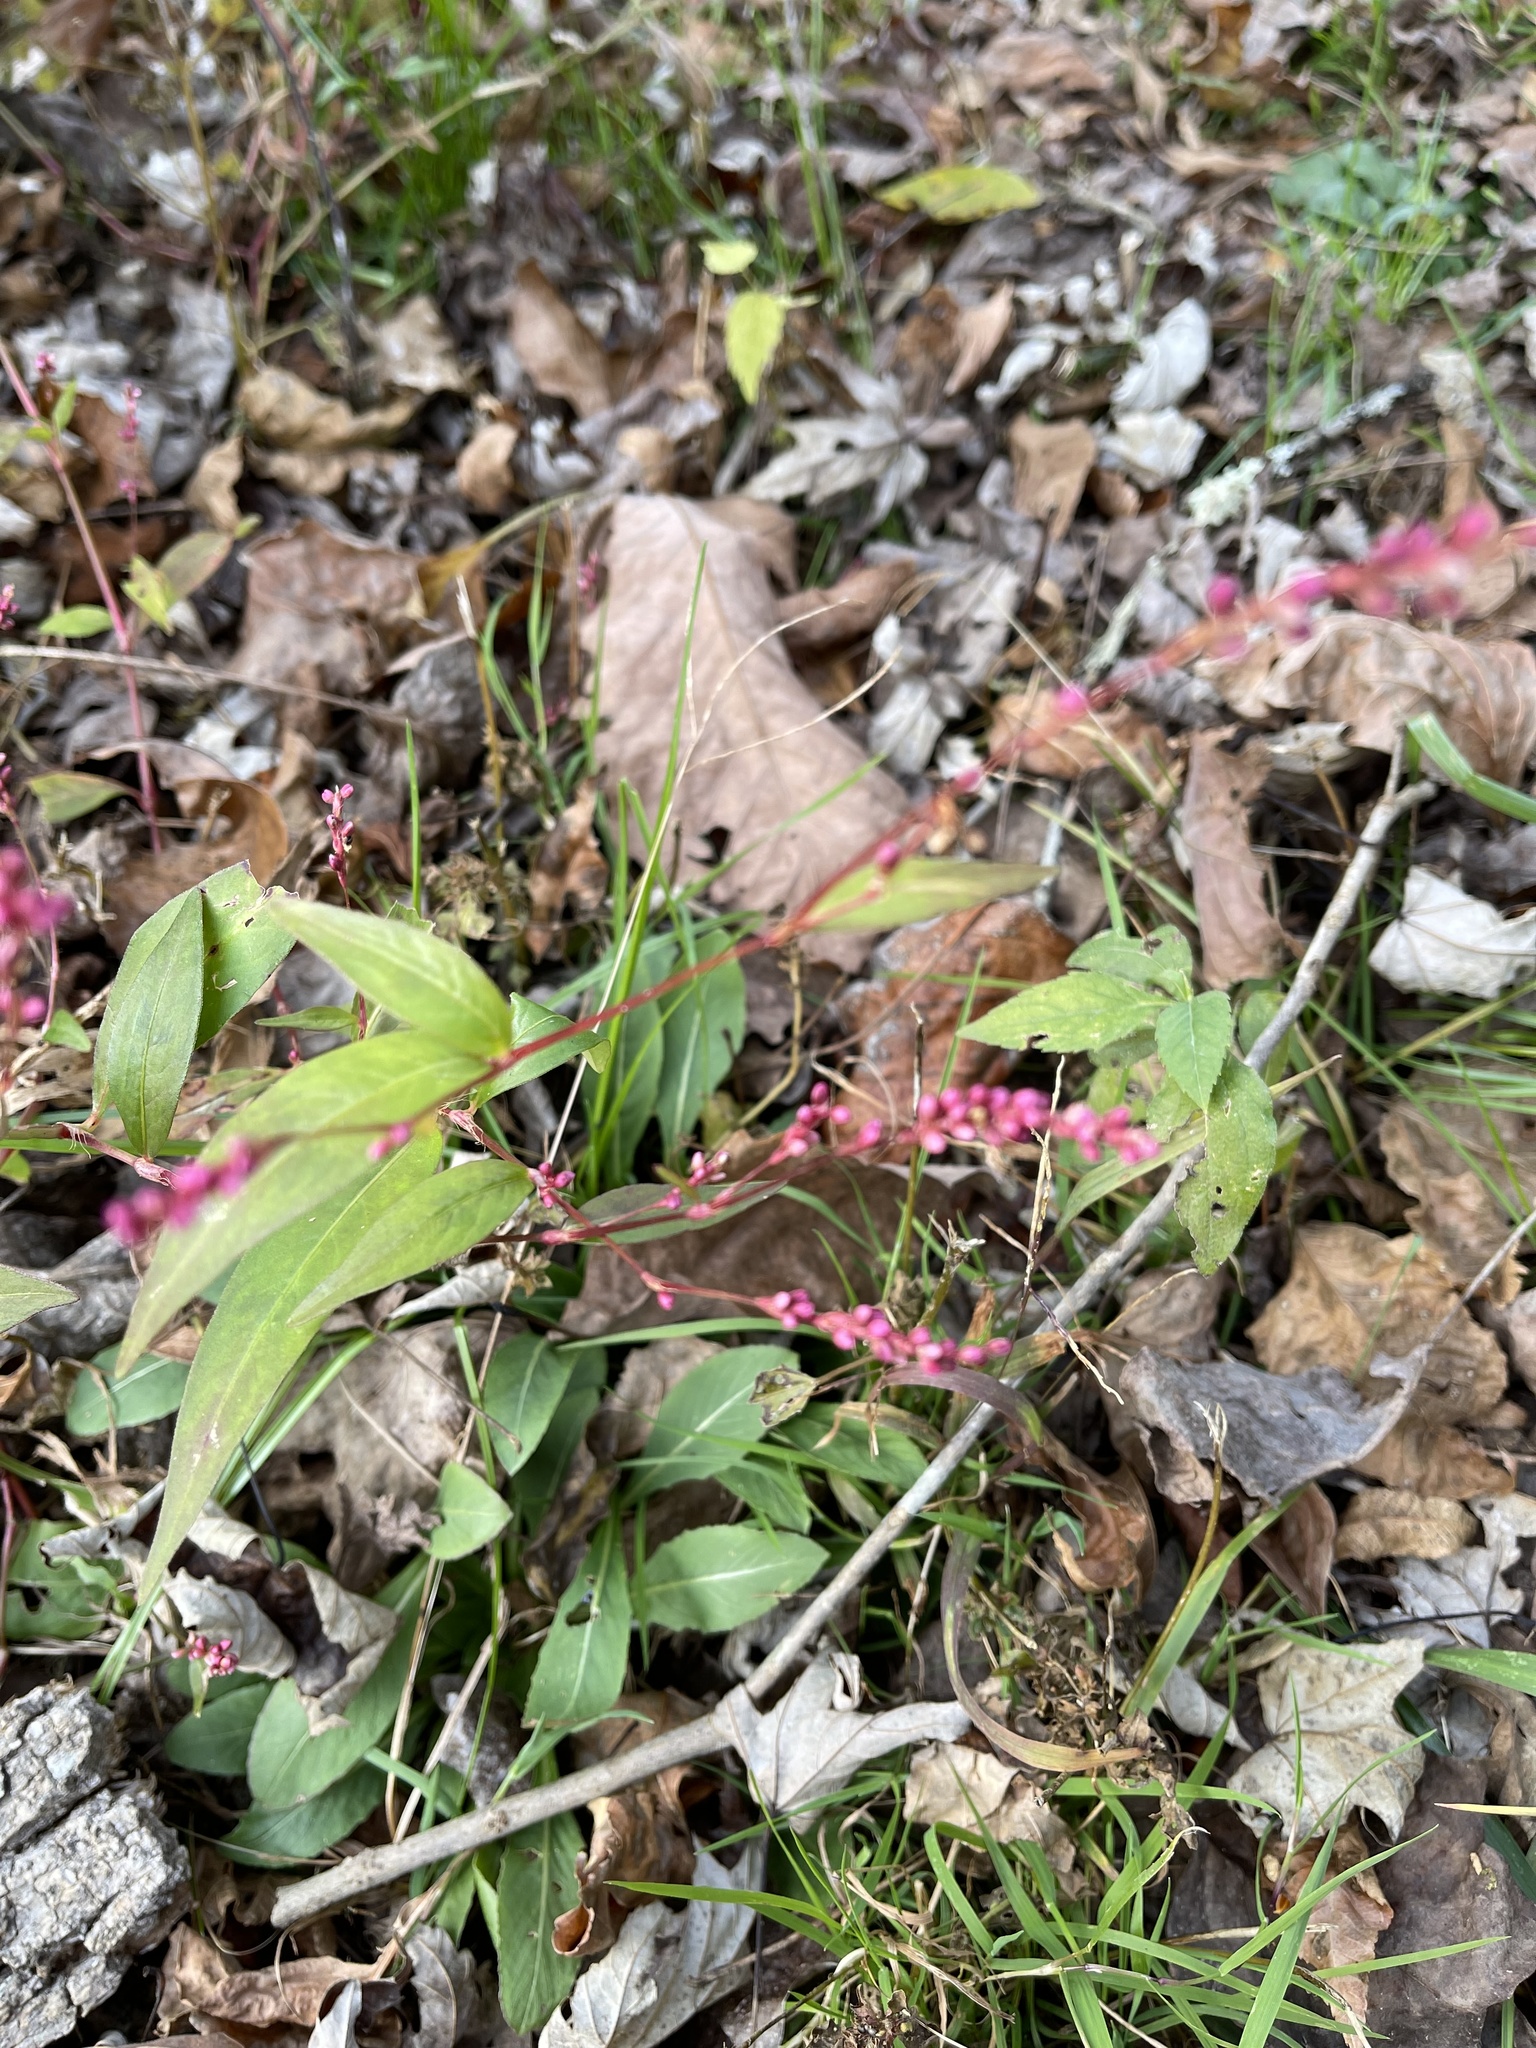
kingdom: Plantae
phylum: Tracheophyta
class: Magnoliopsida
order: Caryophyllales
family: Polygonaceae
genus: Persicaria
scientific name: Persicaria longiseta
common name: Bristly lady's-thumb
